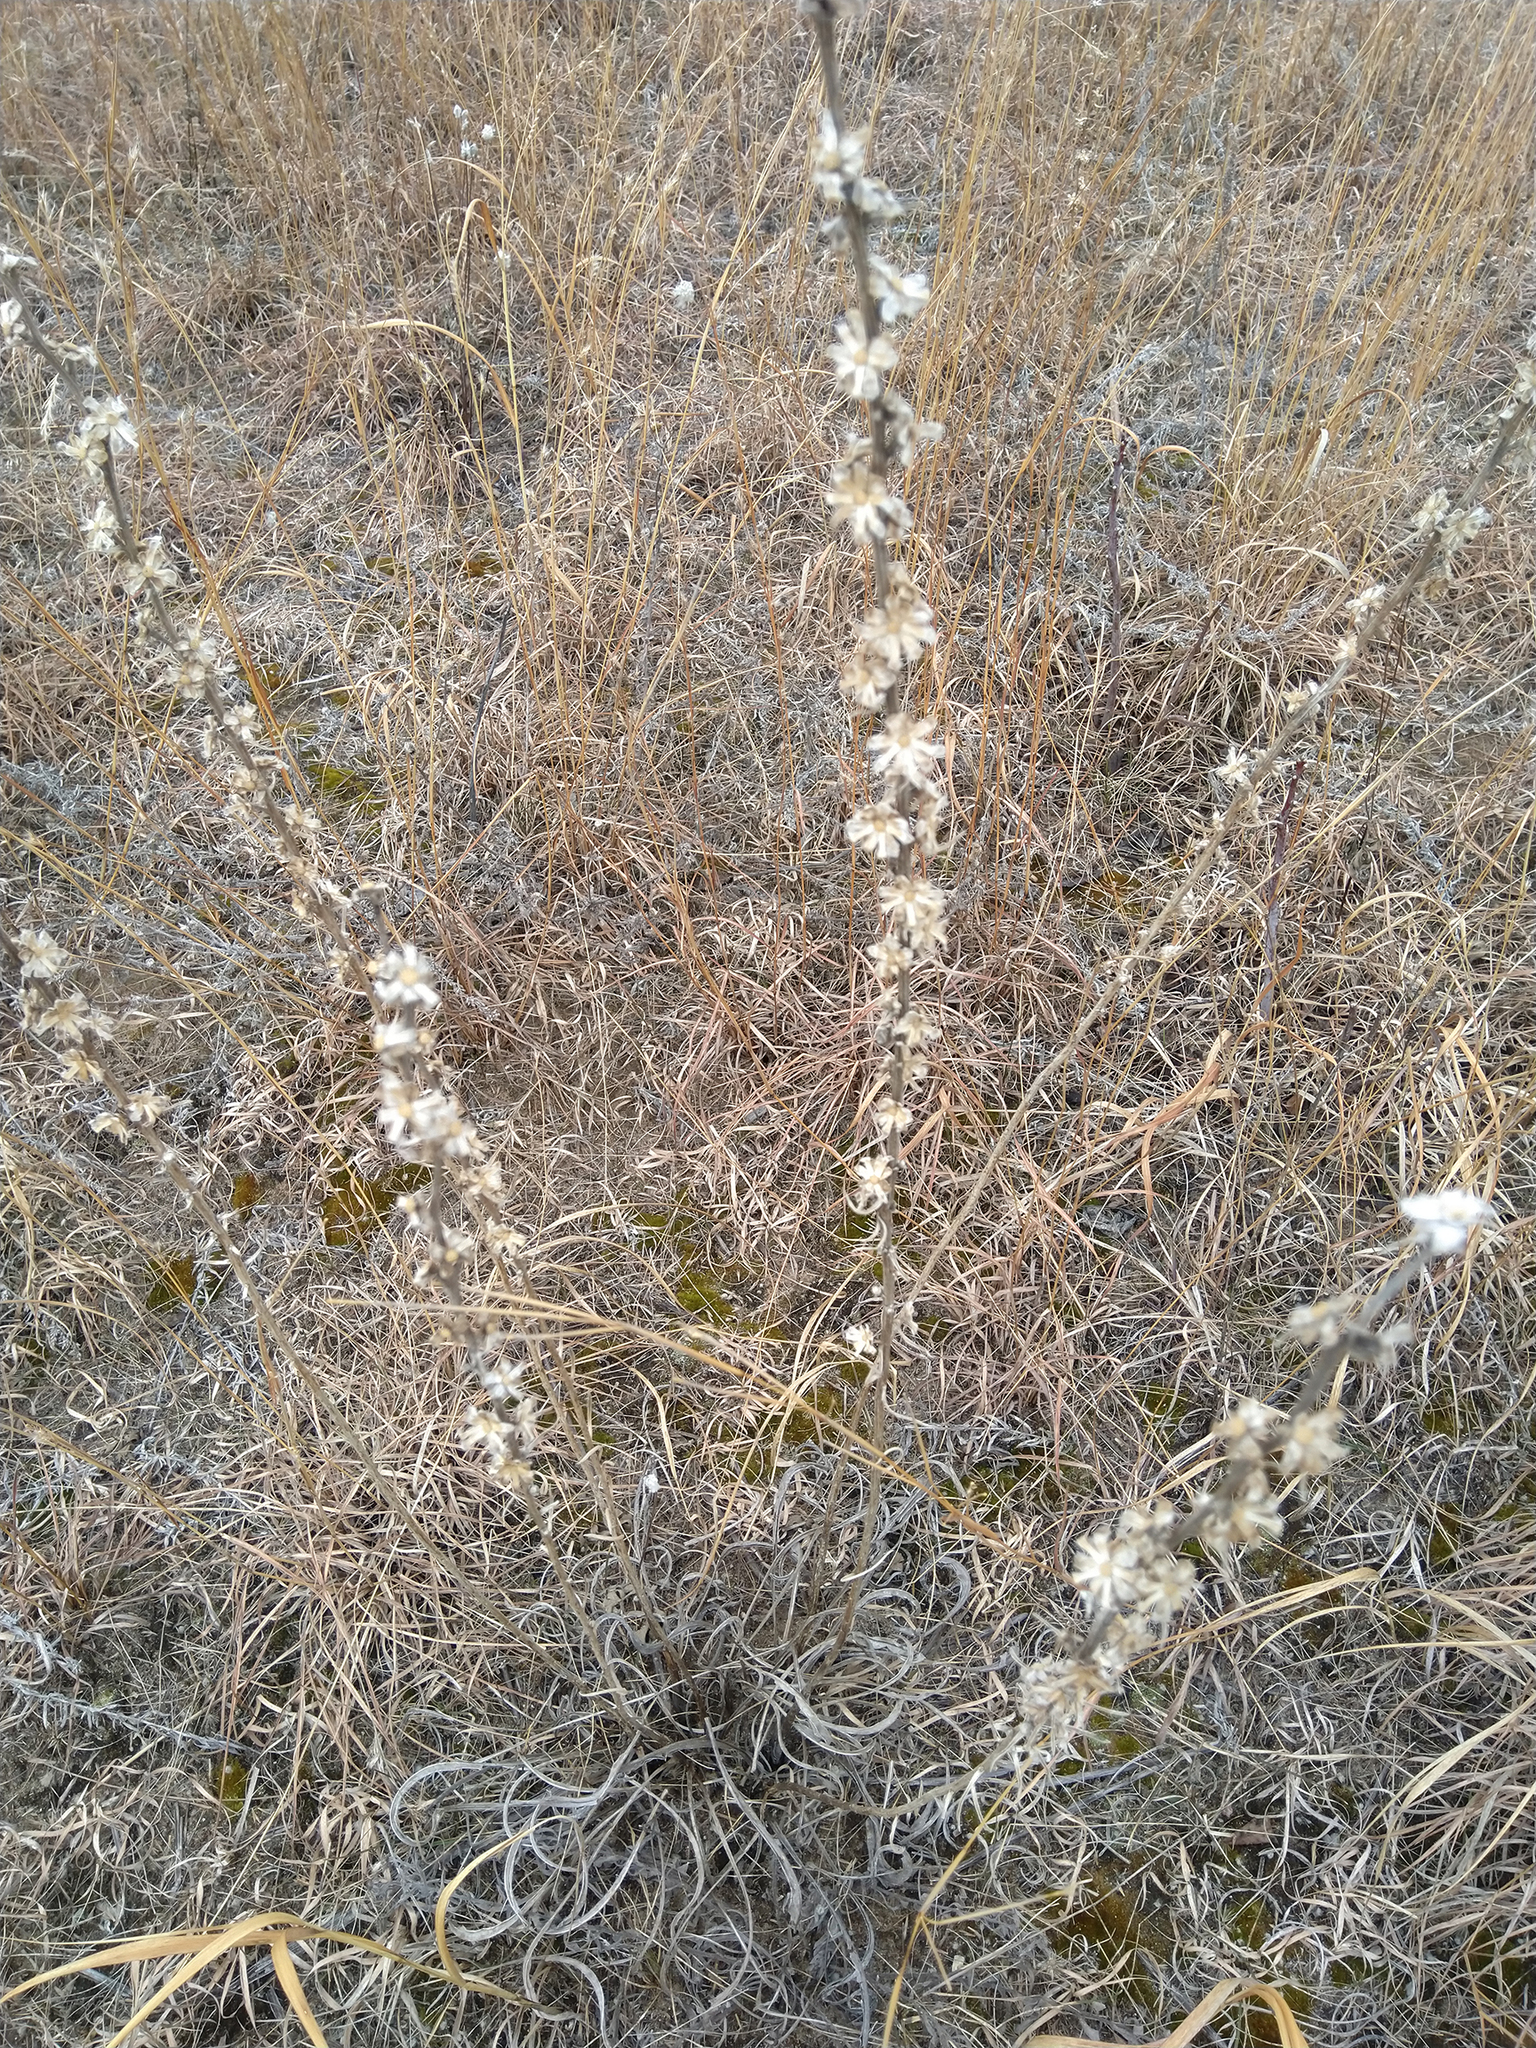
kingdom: Plantae
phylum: Tracheophyta
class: Magnoliopsida
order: Asterales
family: Asteraceae
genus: Liatris
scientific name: Liatris aspera
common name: Lacerate blazing-star
